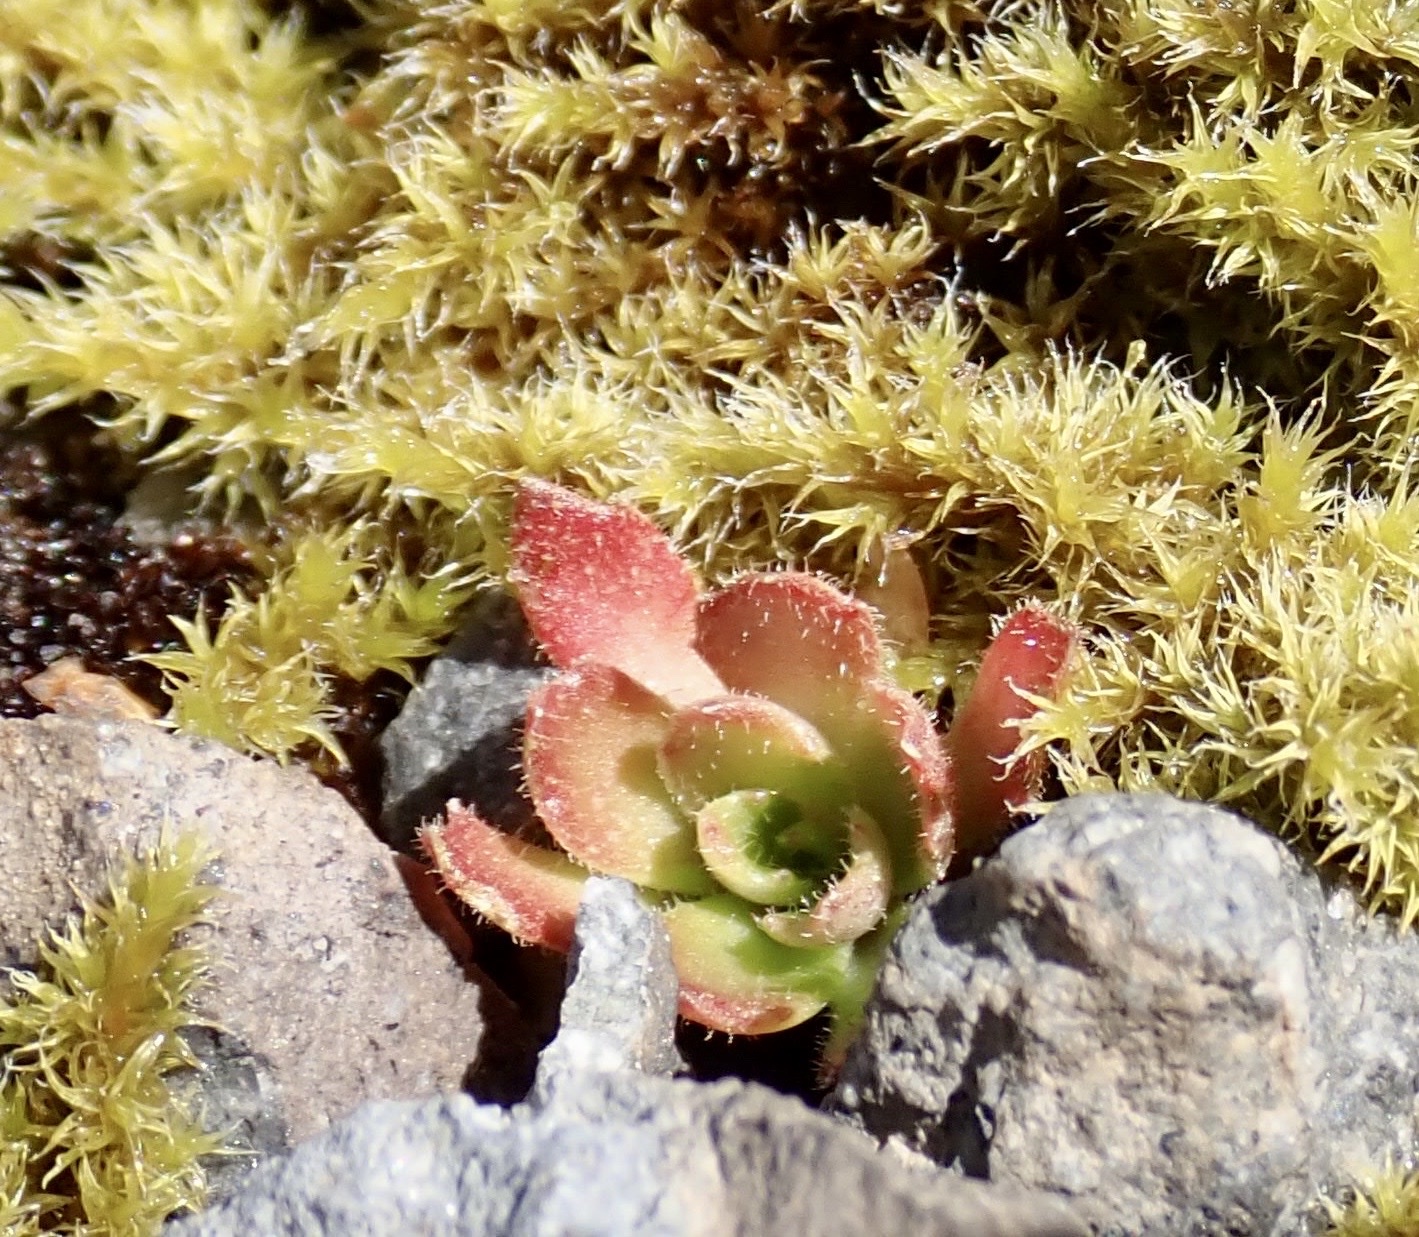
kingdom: Plantae
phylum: Tracheophyta
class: Magnoliopsida
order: Saxifragales
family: Saxifragaceae
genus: Micranthes
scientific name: Micranthes ferruginea
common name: Rusty saxifrage
